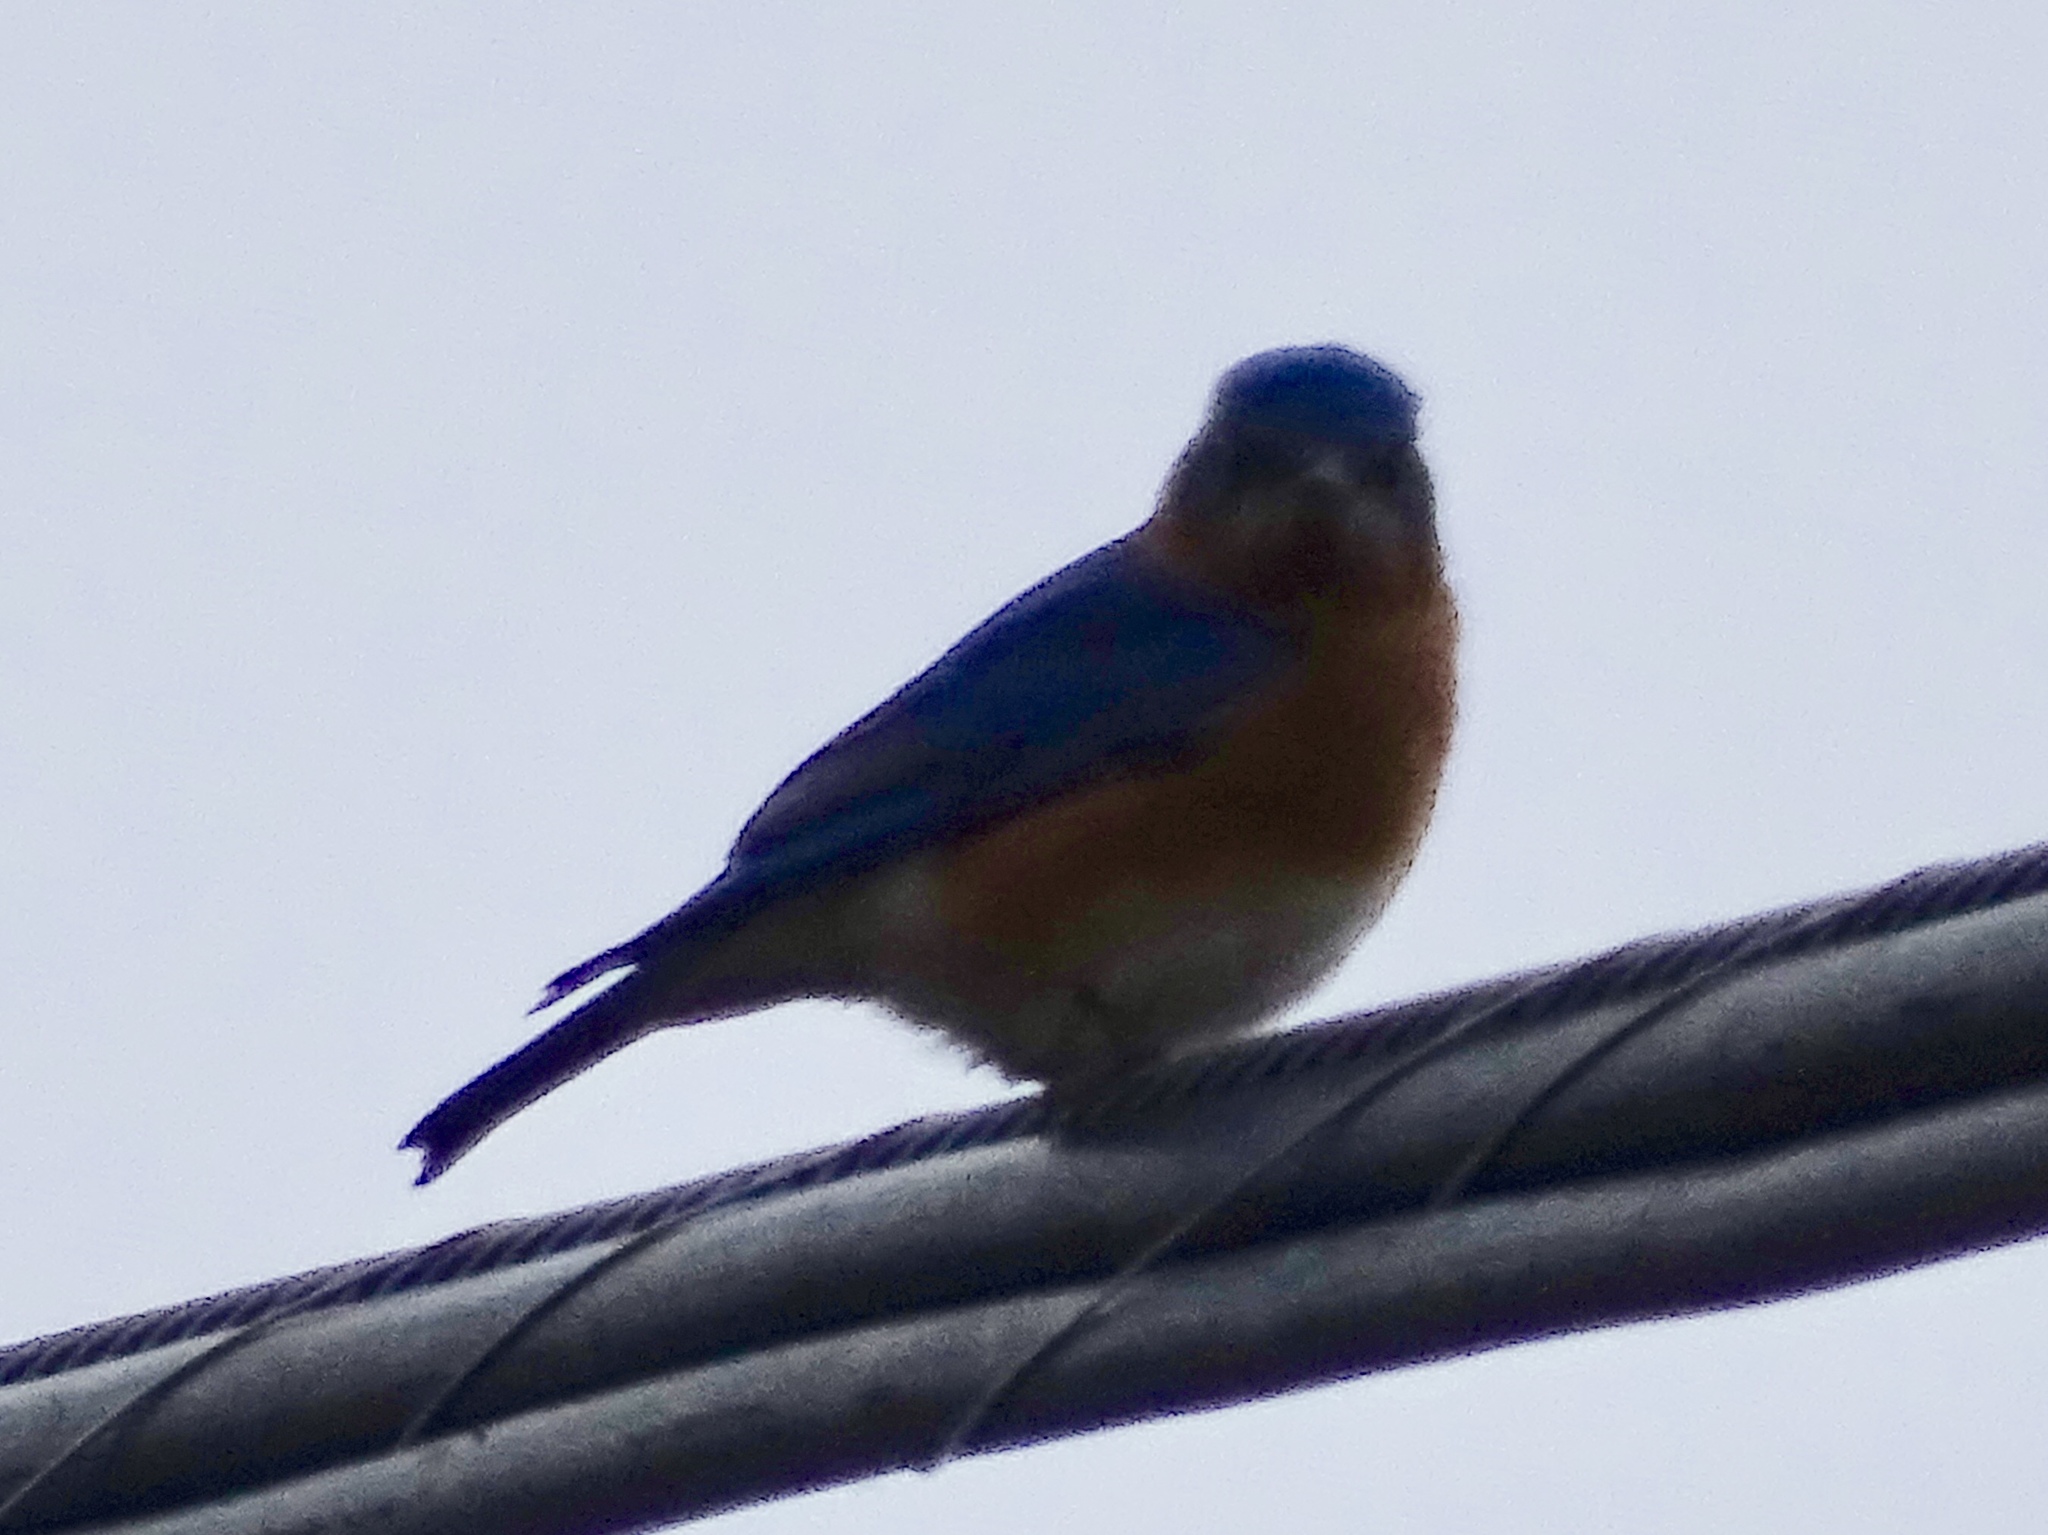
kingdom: Animalia
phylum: Chordata
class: Aves
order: Passeriformes
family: Turdidae
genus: Sialia
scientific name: Sialia sialis
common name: Eastern bluebird
